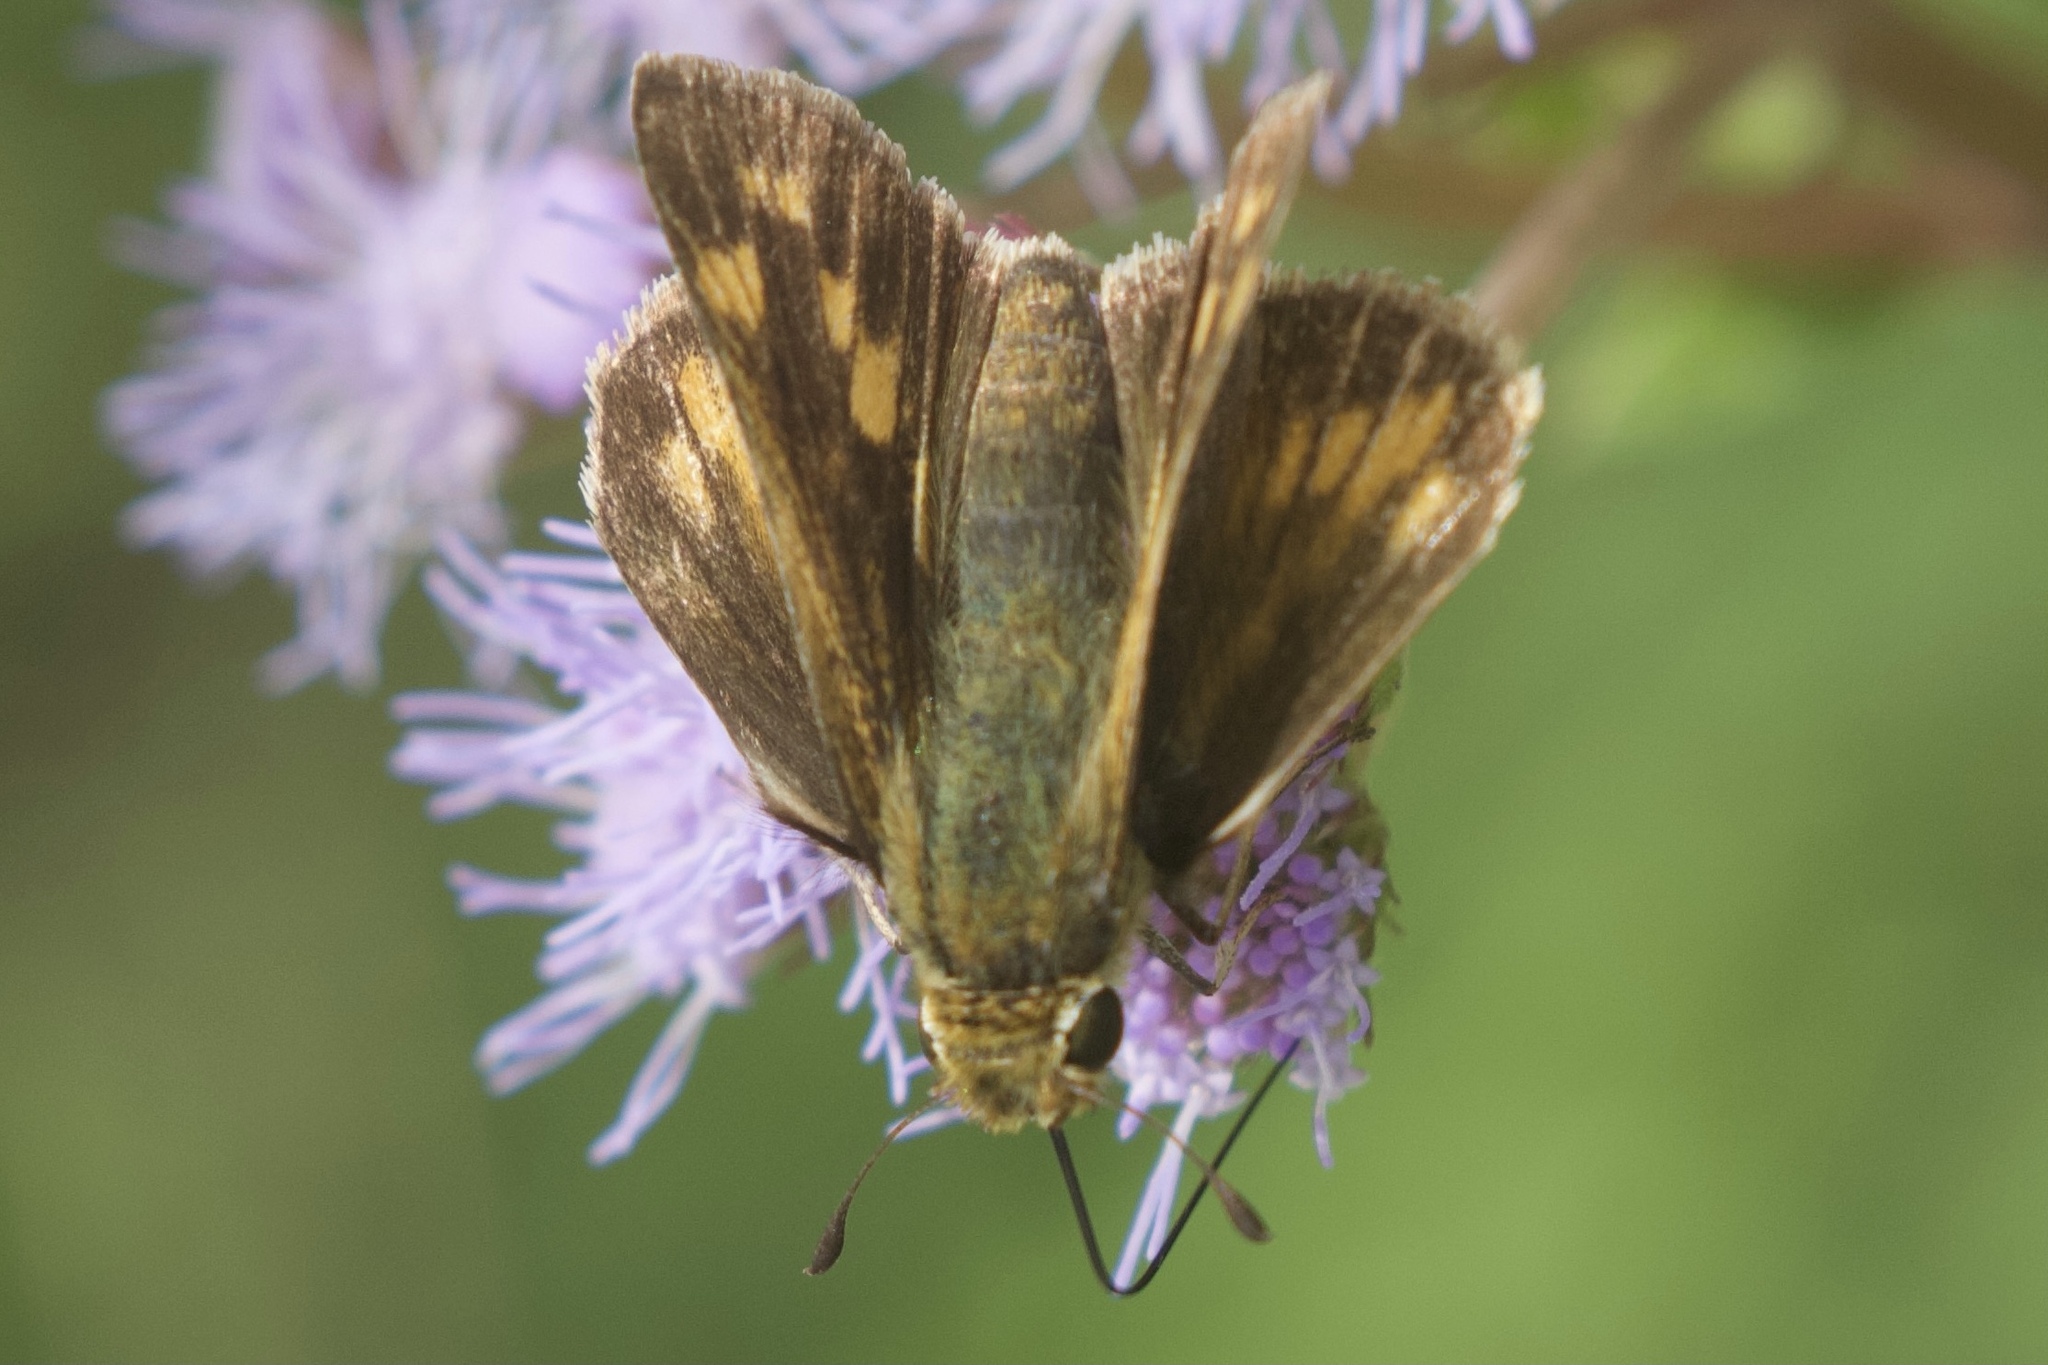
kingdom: Animalia
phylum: Arthropoda
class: Insecta
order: Lepidoptera
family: Hesperiidae
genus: Hylephila
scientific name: Hylephila phyleus
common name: Fiery skipper
